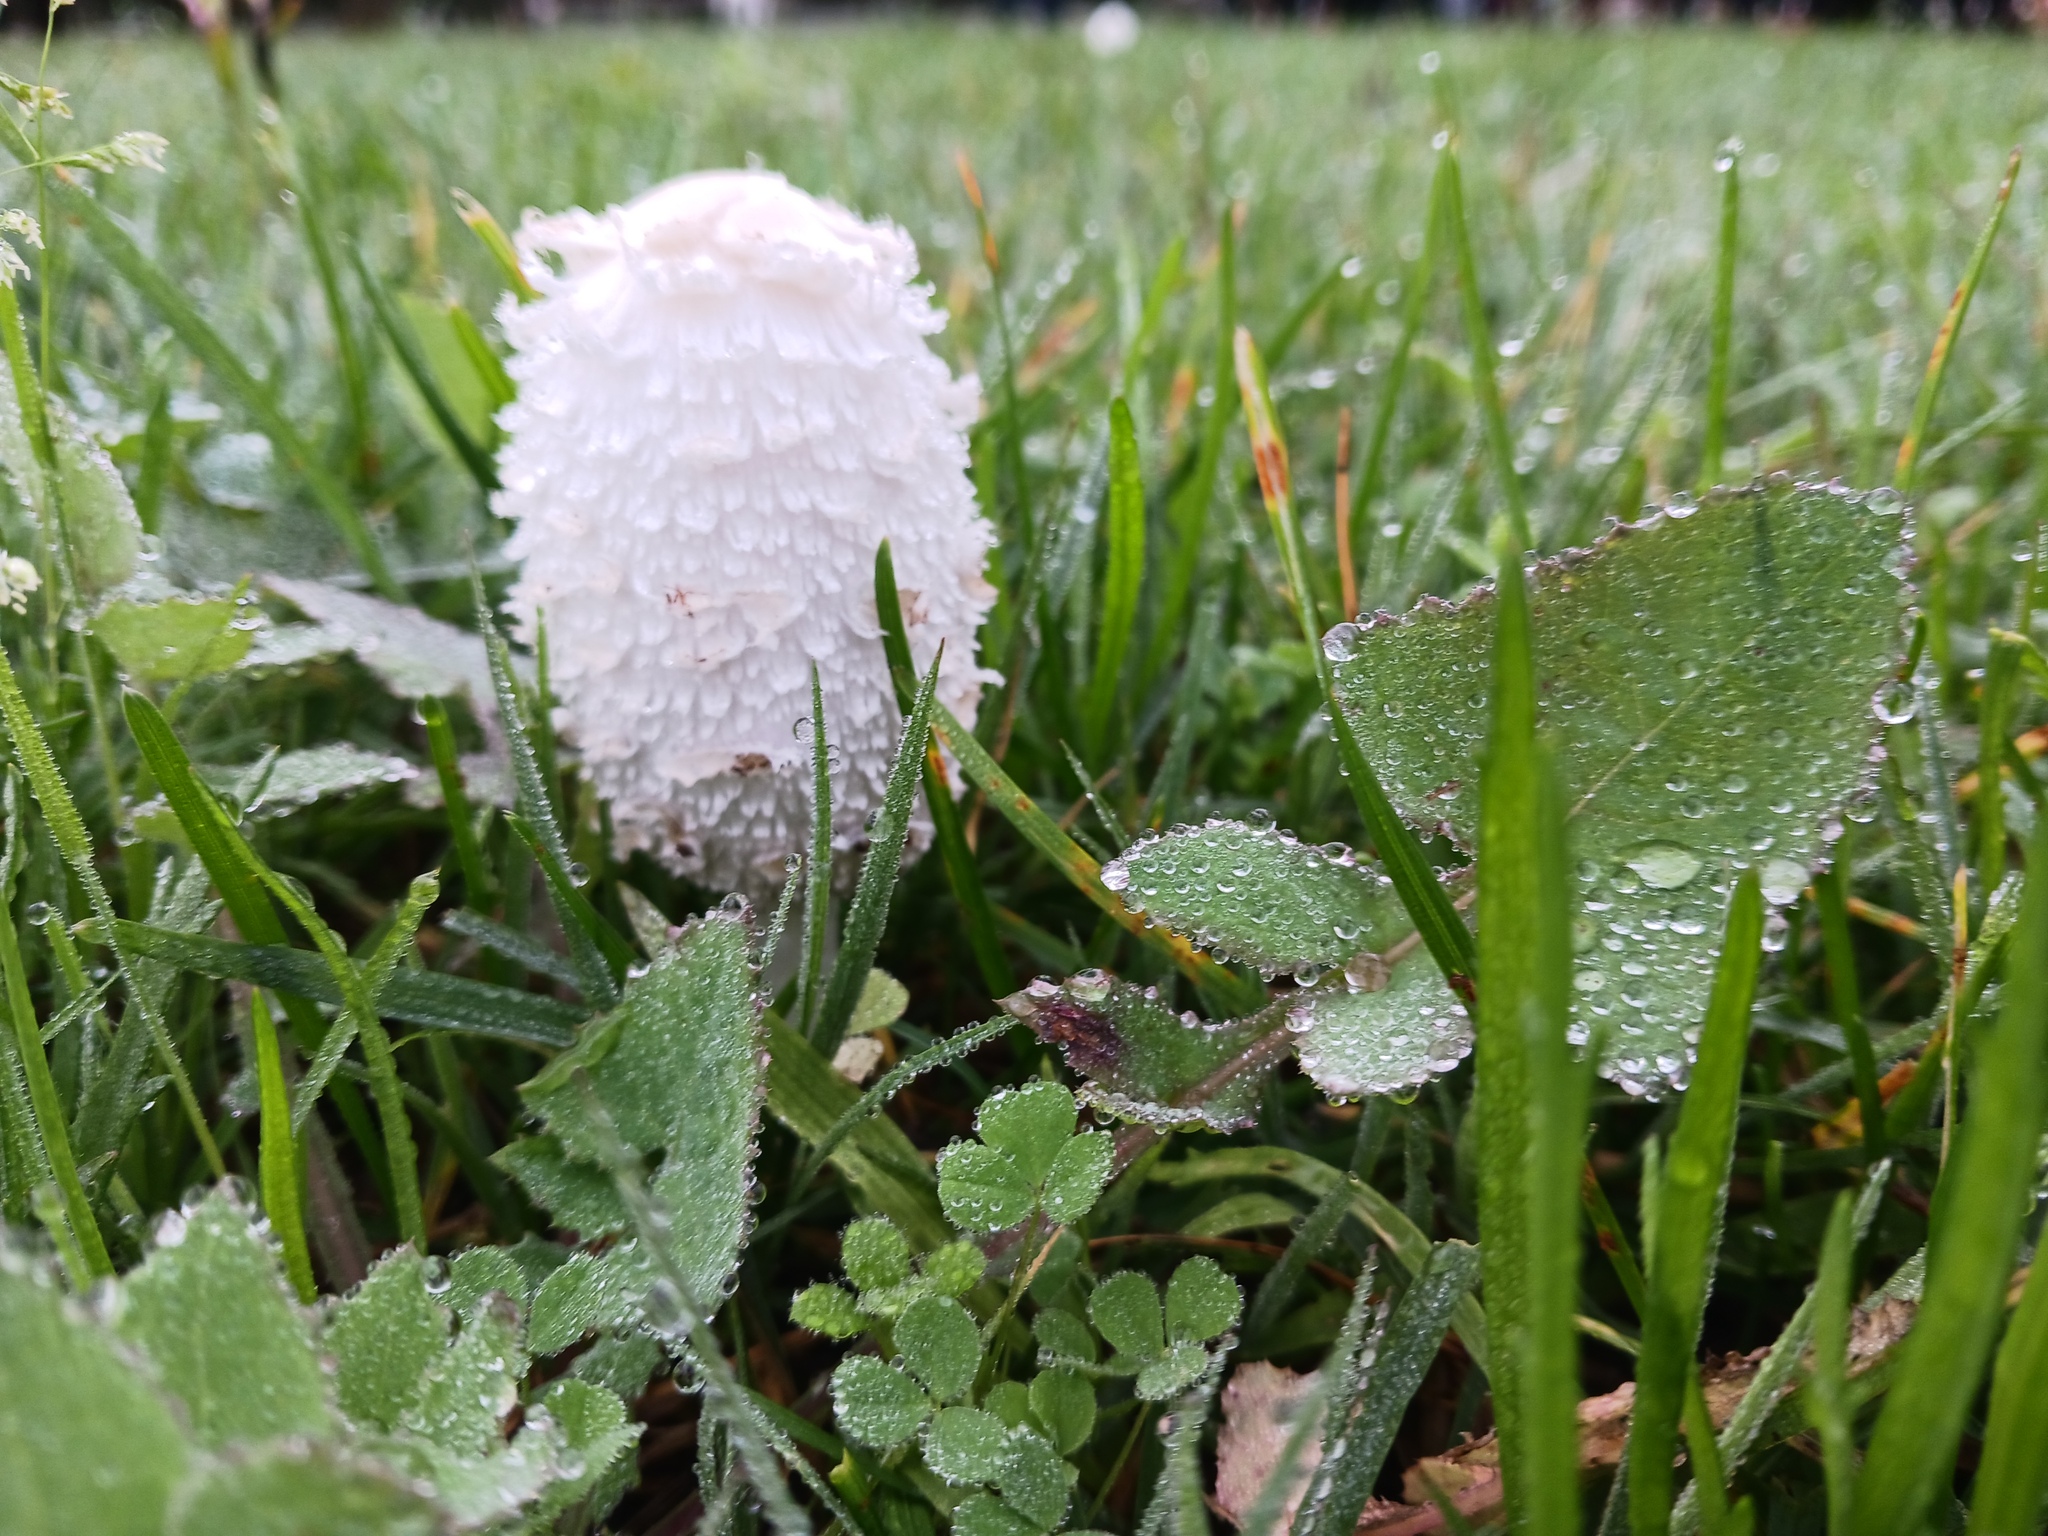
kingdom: Fungi
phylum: Basidiomycota
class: Agaricomycetes
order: Agaricales
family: Agaricaceae
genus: Coprinus
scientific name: Coprinus comatus
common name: Lawyer's wig
